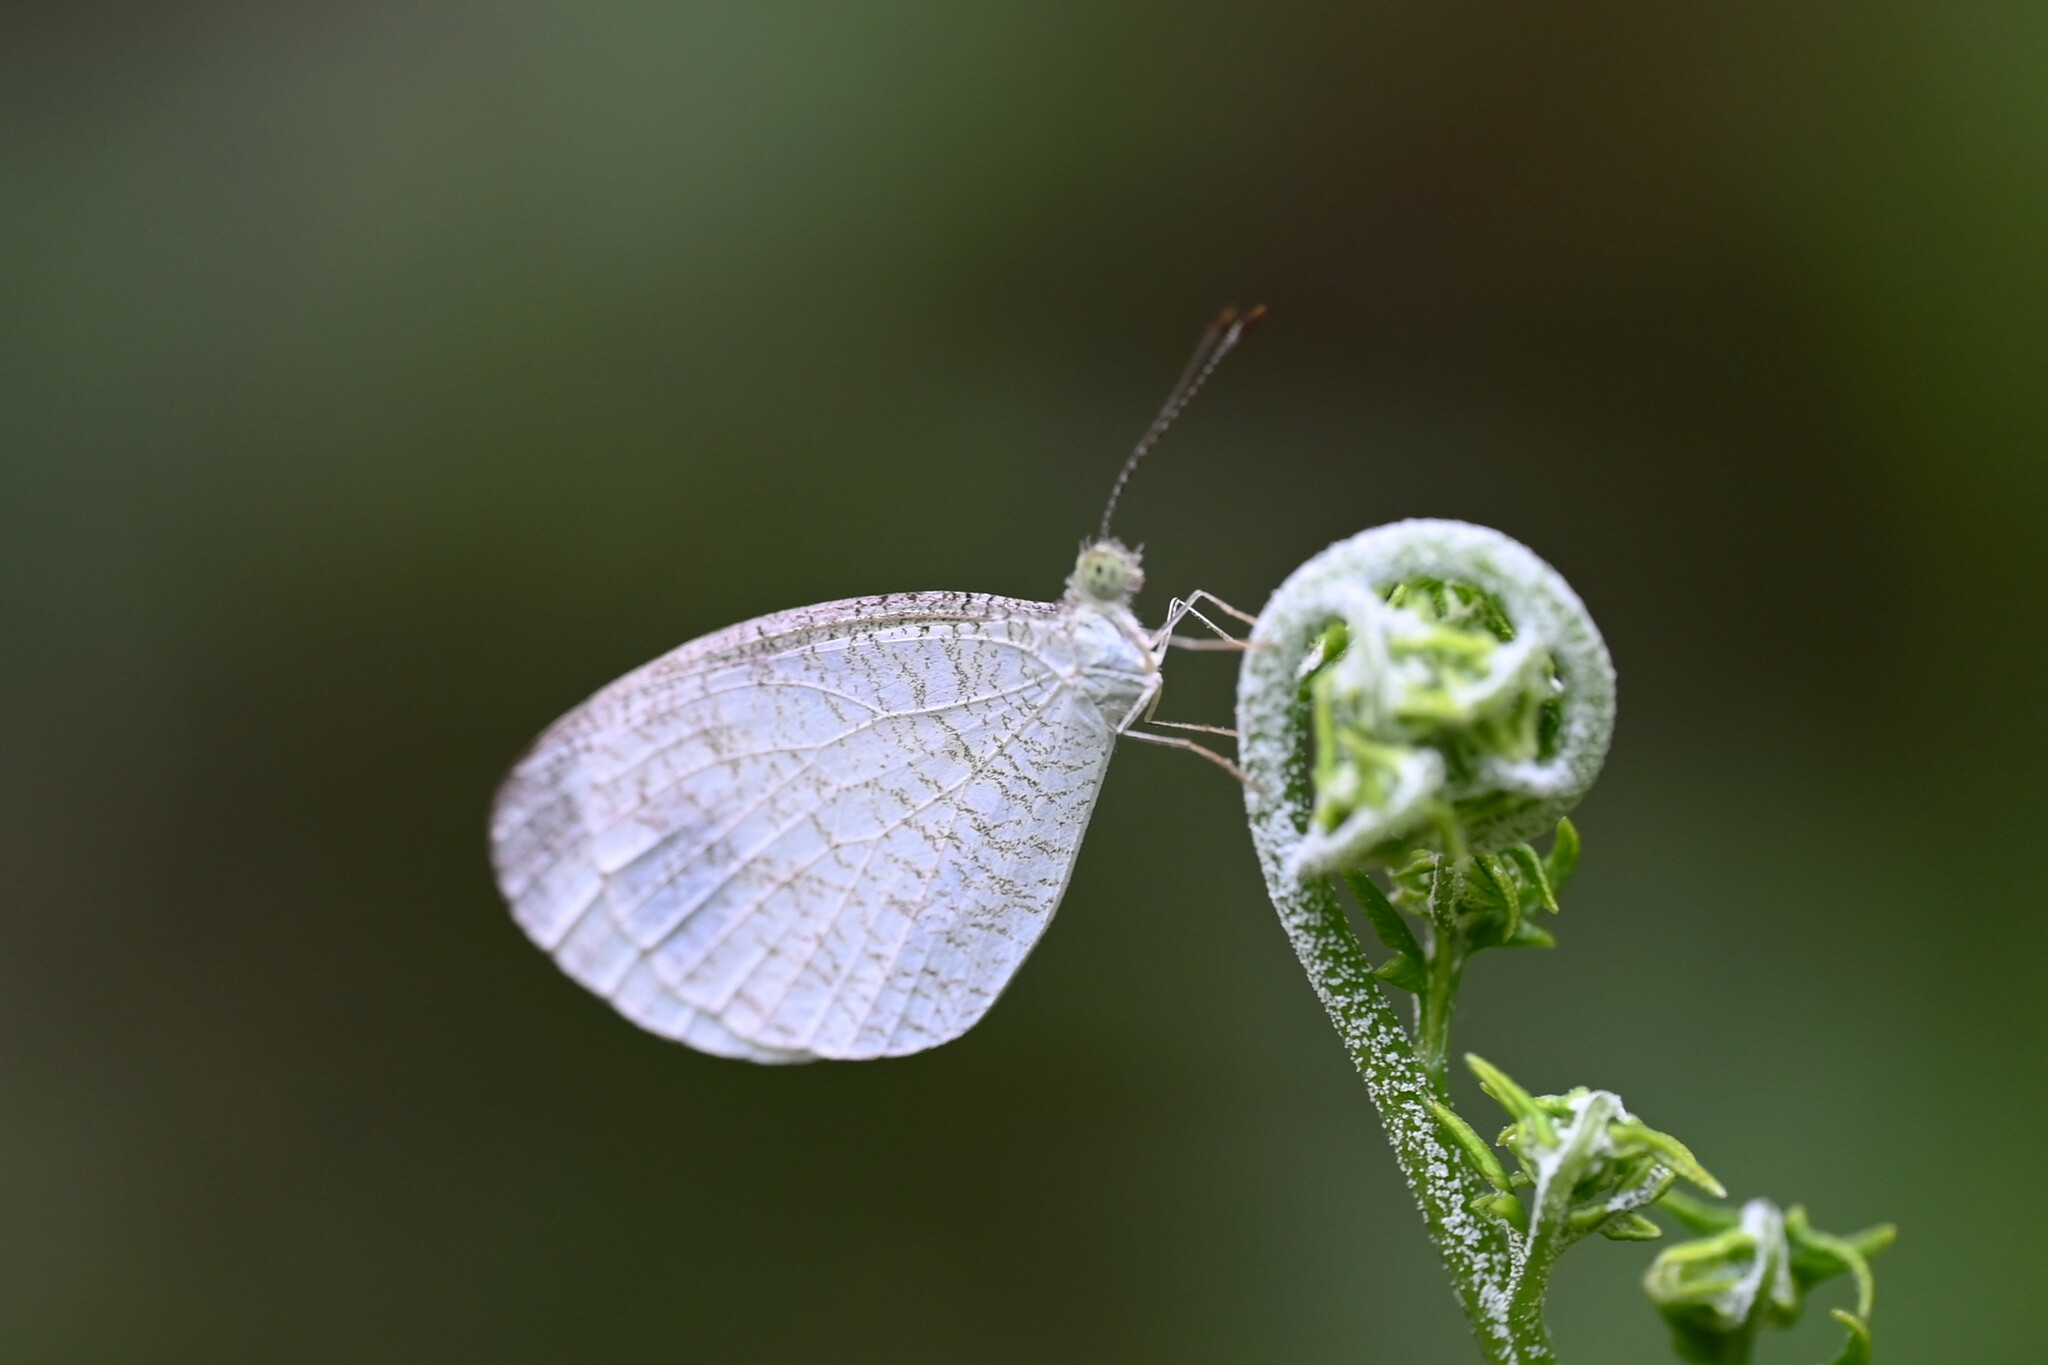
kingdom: Animalia
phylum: Arthropoda
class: Insecta
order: Lepidoptera
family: Pieridae
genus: Leptosia
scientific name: Leptosia nina
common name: Psyche
